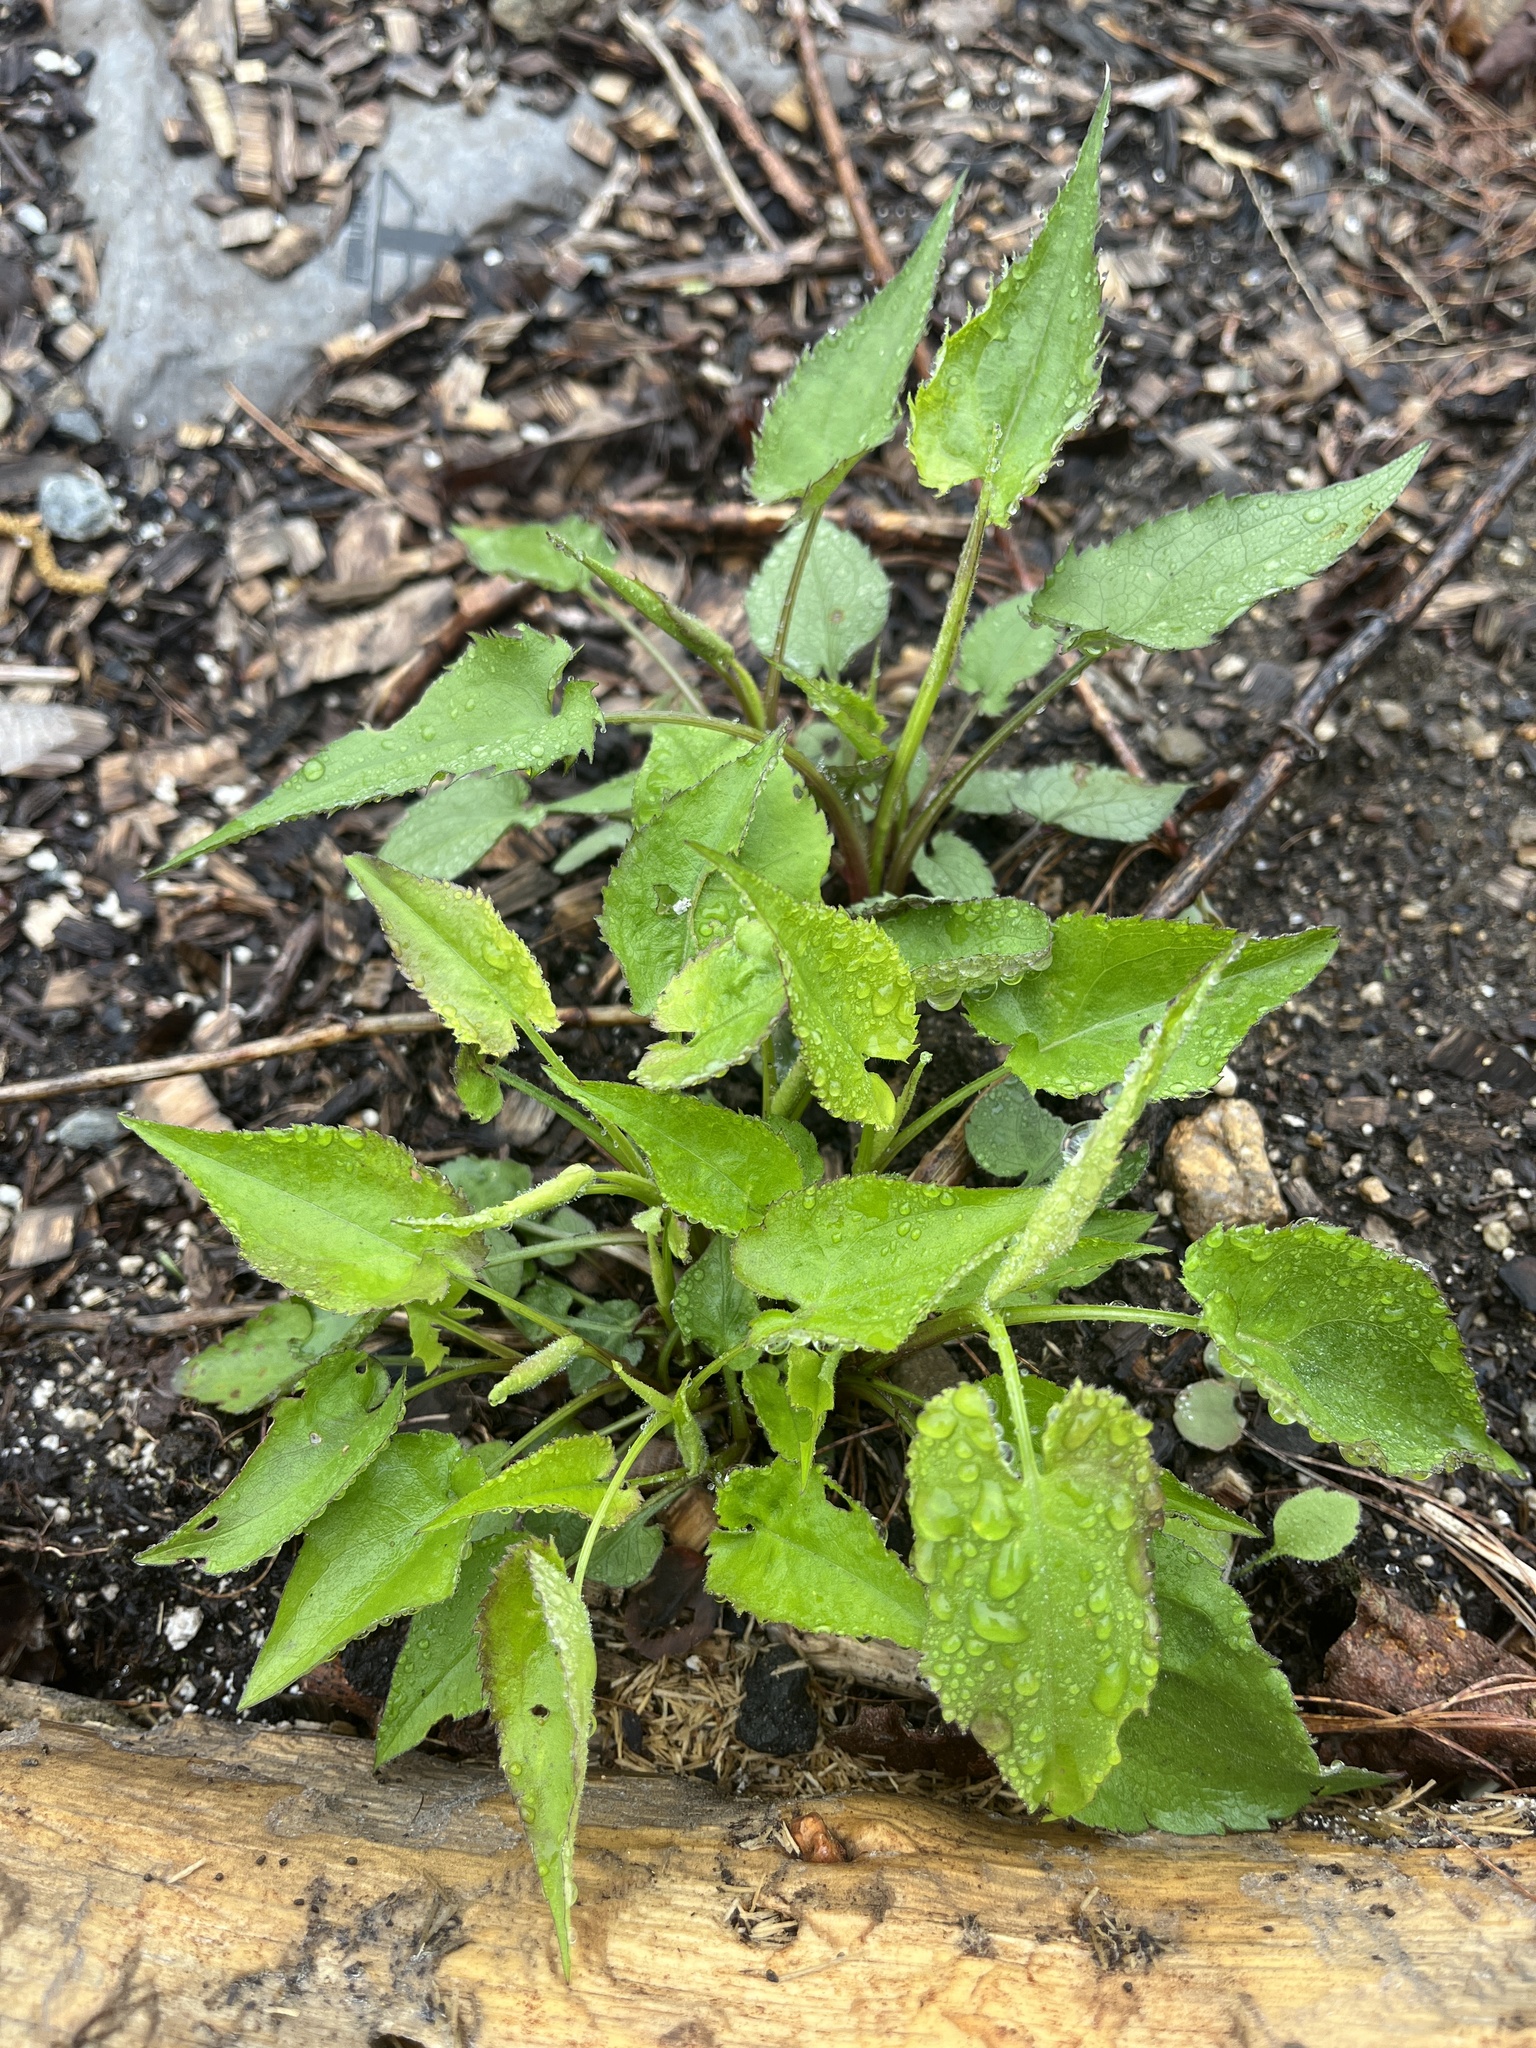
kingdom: Plantae
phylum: Tracheophyta
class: Magnoliopsida
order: Asterales
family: Asteraceae
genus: Symphyotrichum
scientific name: Symphyotrichum cordifolium
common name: Beeweed
